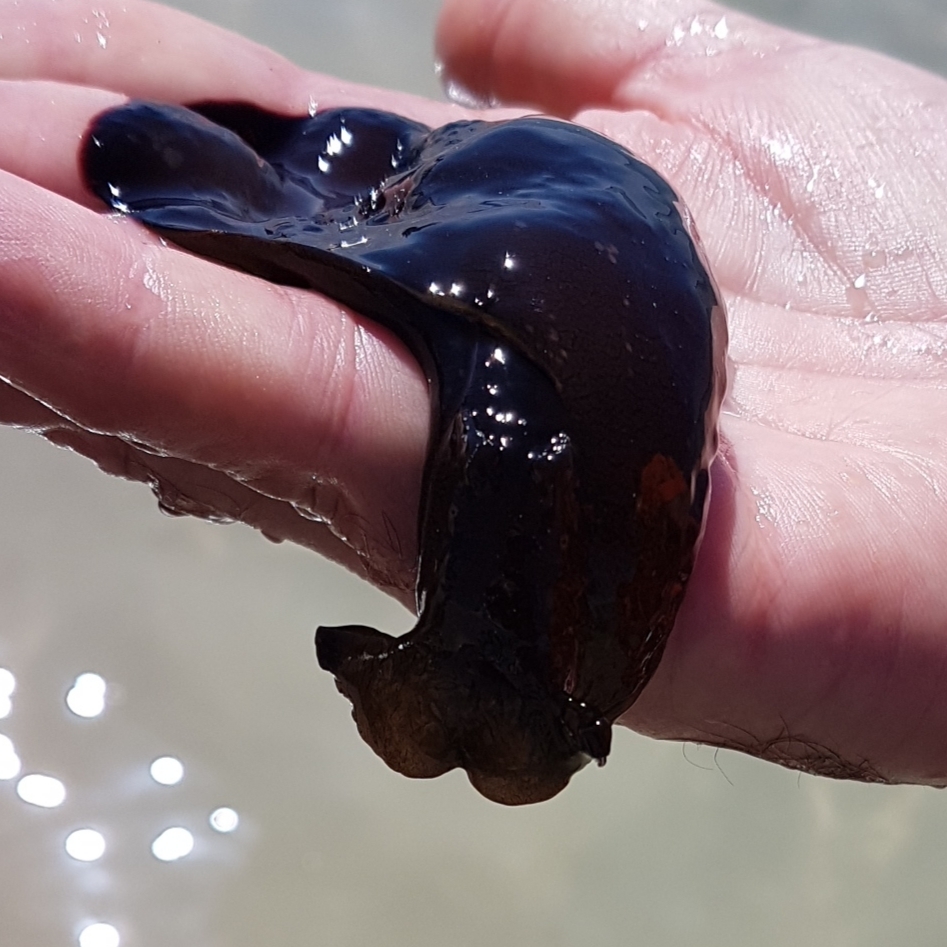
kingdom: Animalia
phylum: Mollusca
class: Gastropoda
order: Aplysiida
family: Aplysiidae
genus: Aplysia
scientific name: Aplysia fasciata
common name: Banded sea hare
